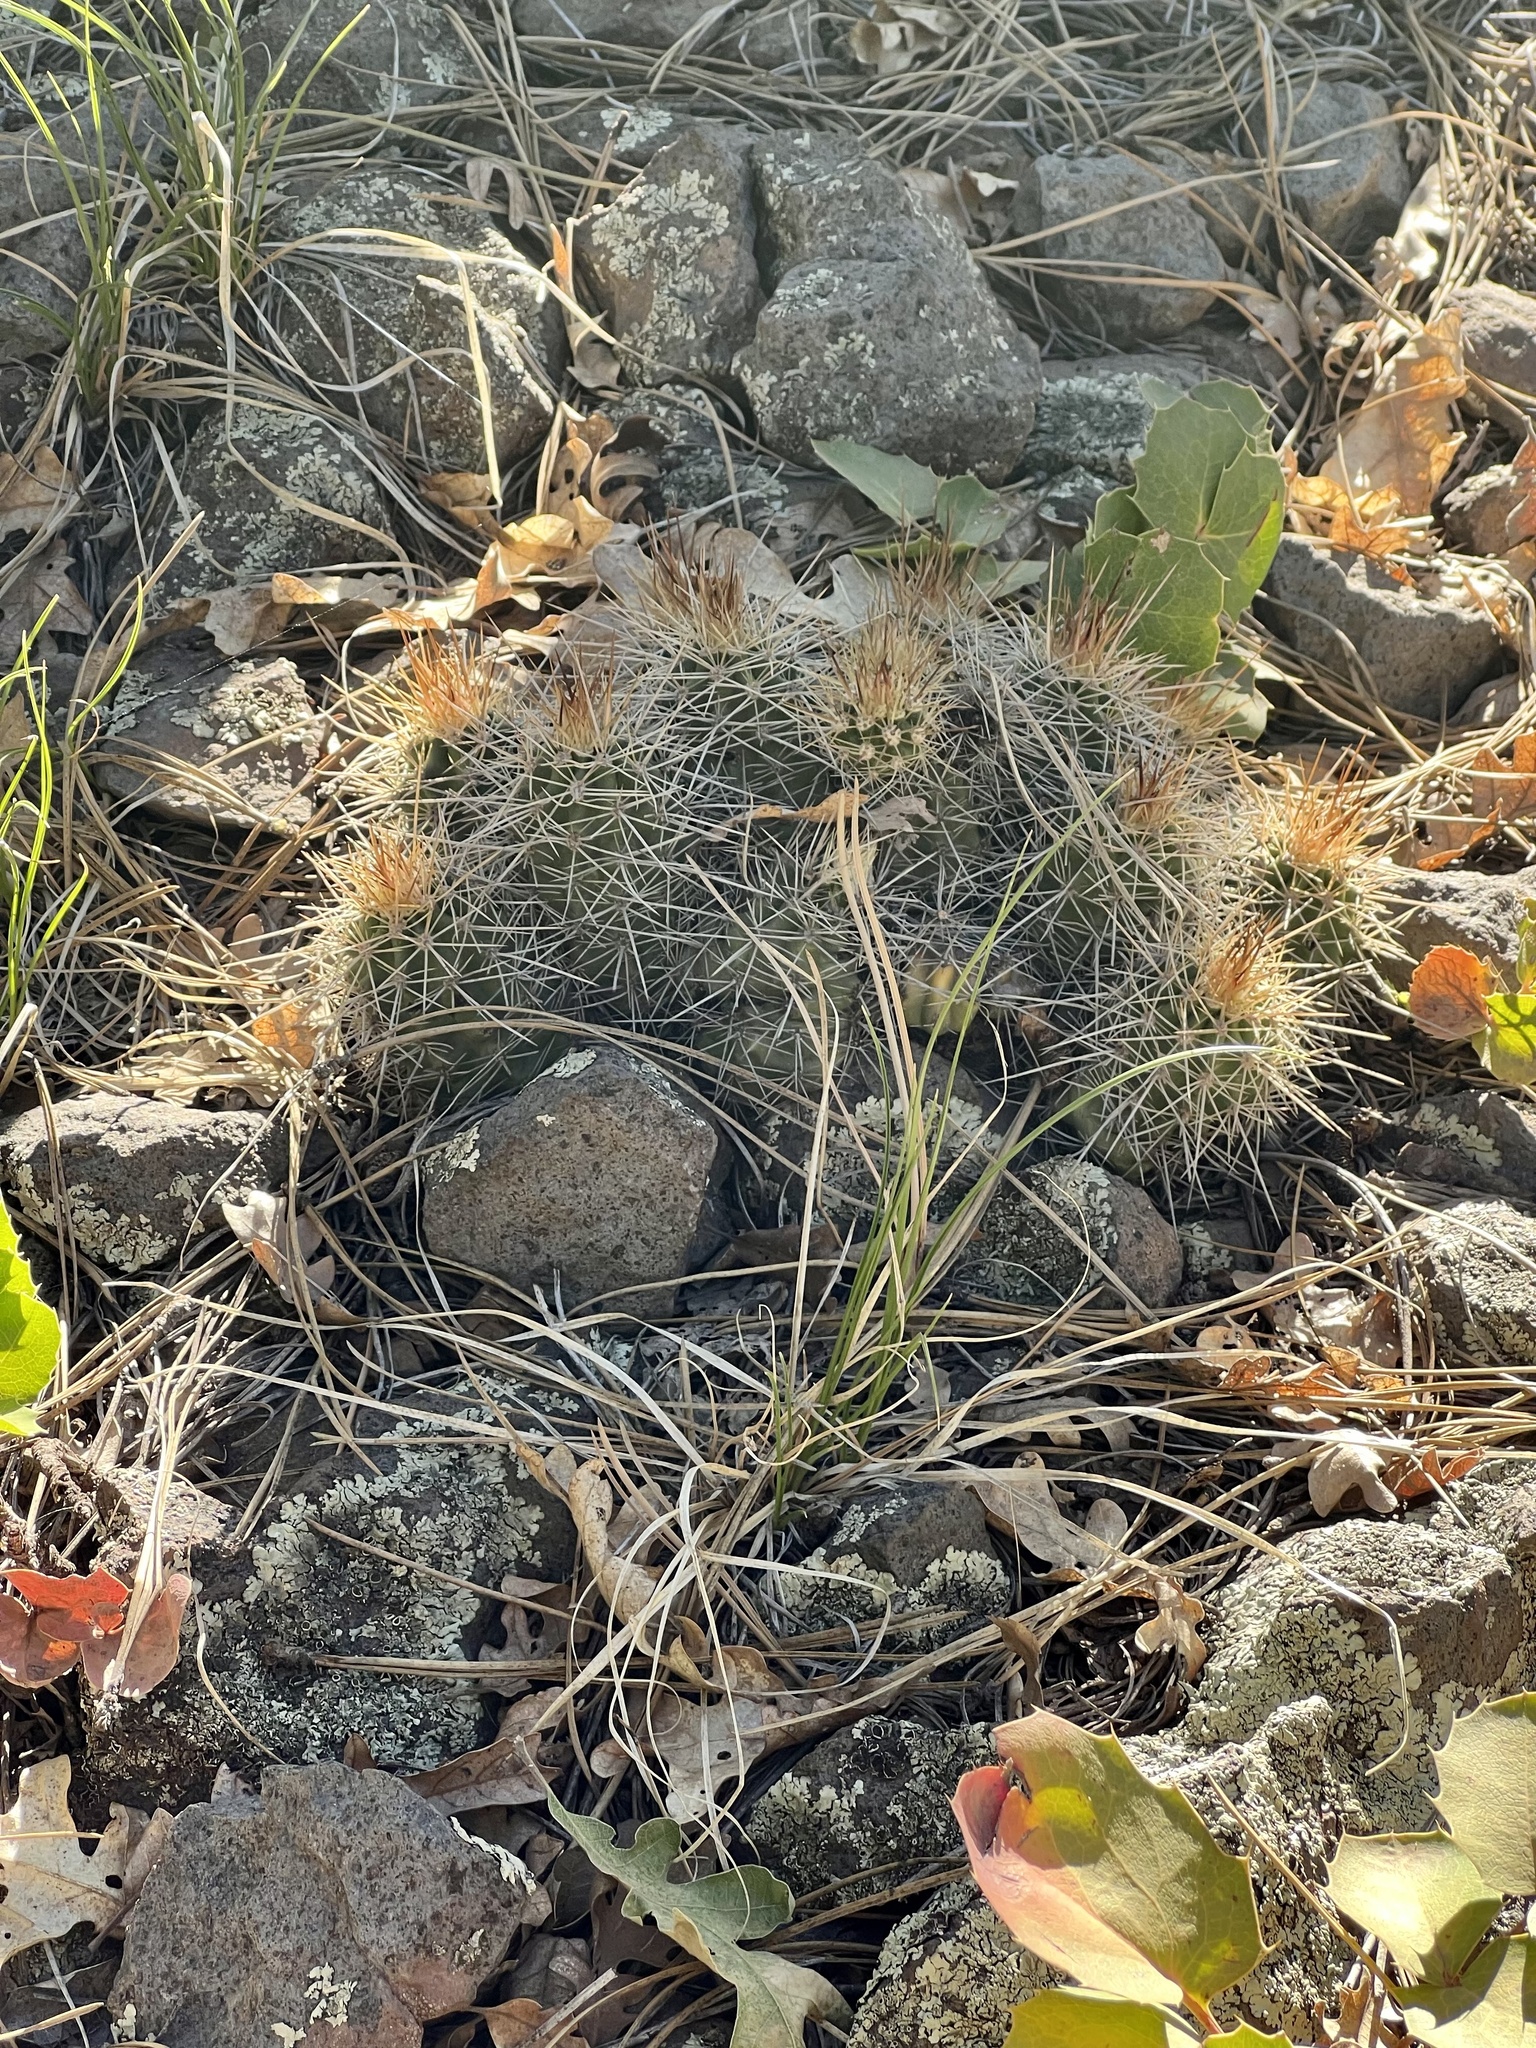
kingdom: Plantae
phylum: Tracheophyta
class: Magnoliopsida
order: Caryophyllales
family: Cactaceae
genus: Echinocereus
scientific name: Echinocereus bakeri
